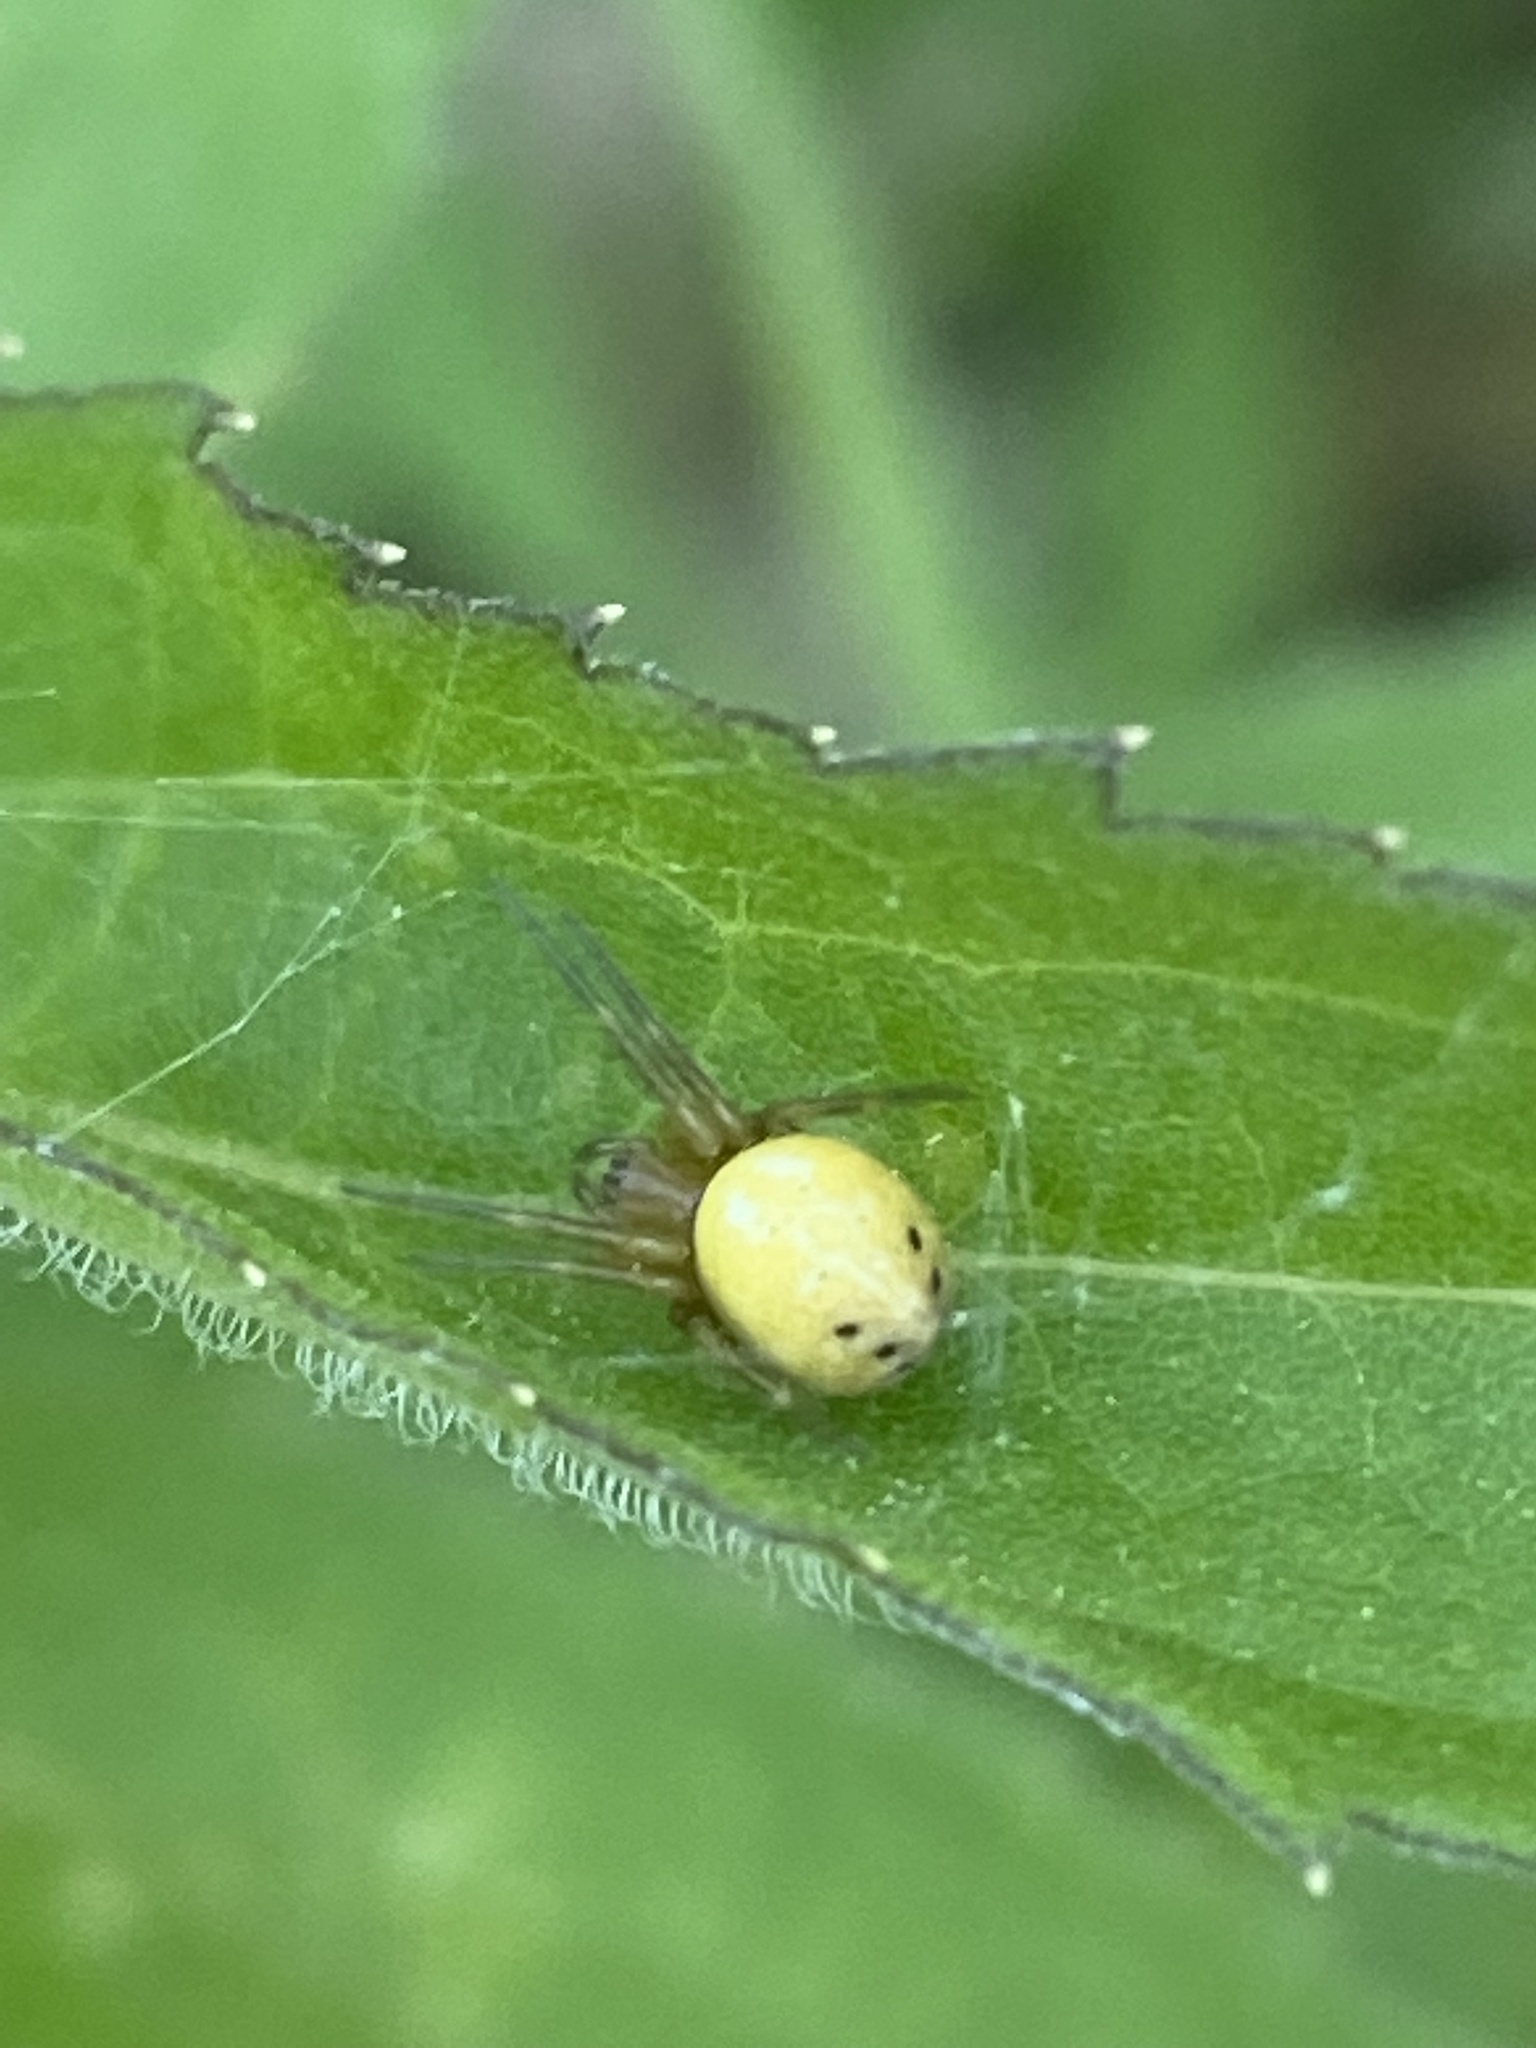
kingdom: Animalia
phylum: Arthropoda
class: Arachnida
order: Araneae
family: Araneidae
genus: Araniella
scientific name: Araniella displicata
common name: Sixspotted orb weaver
